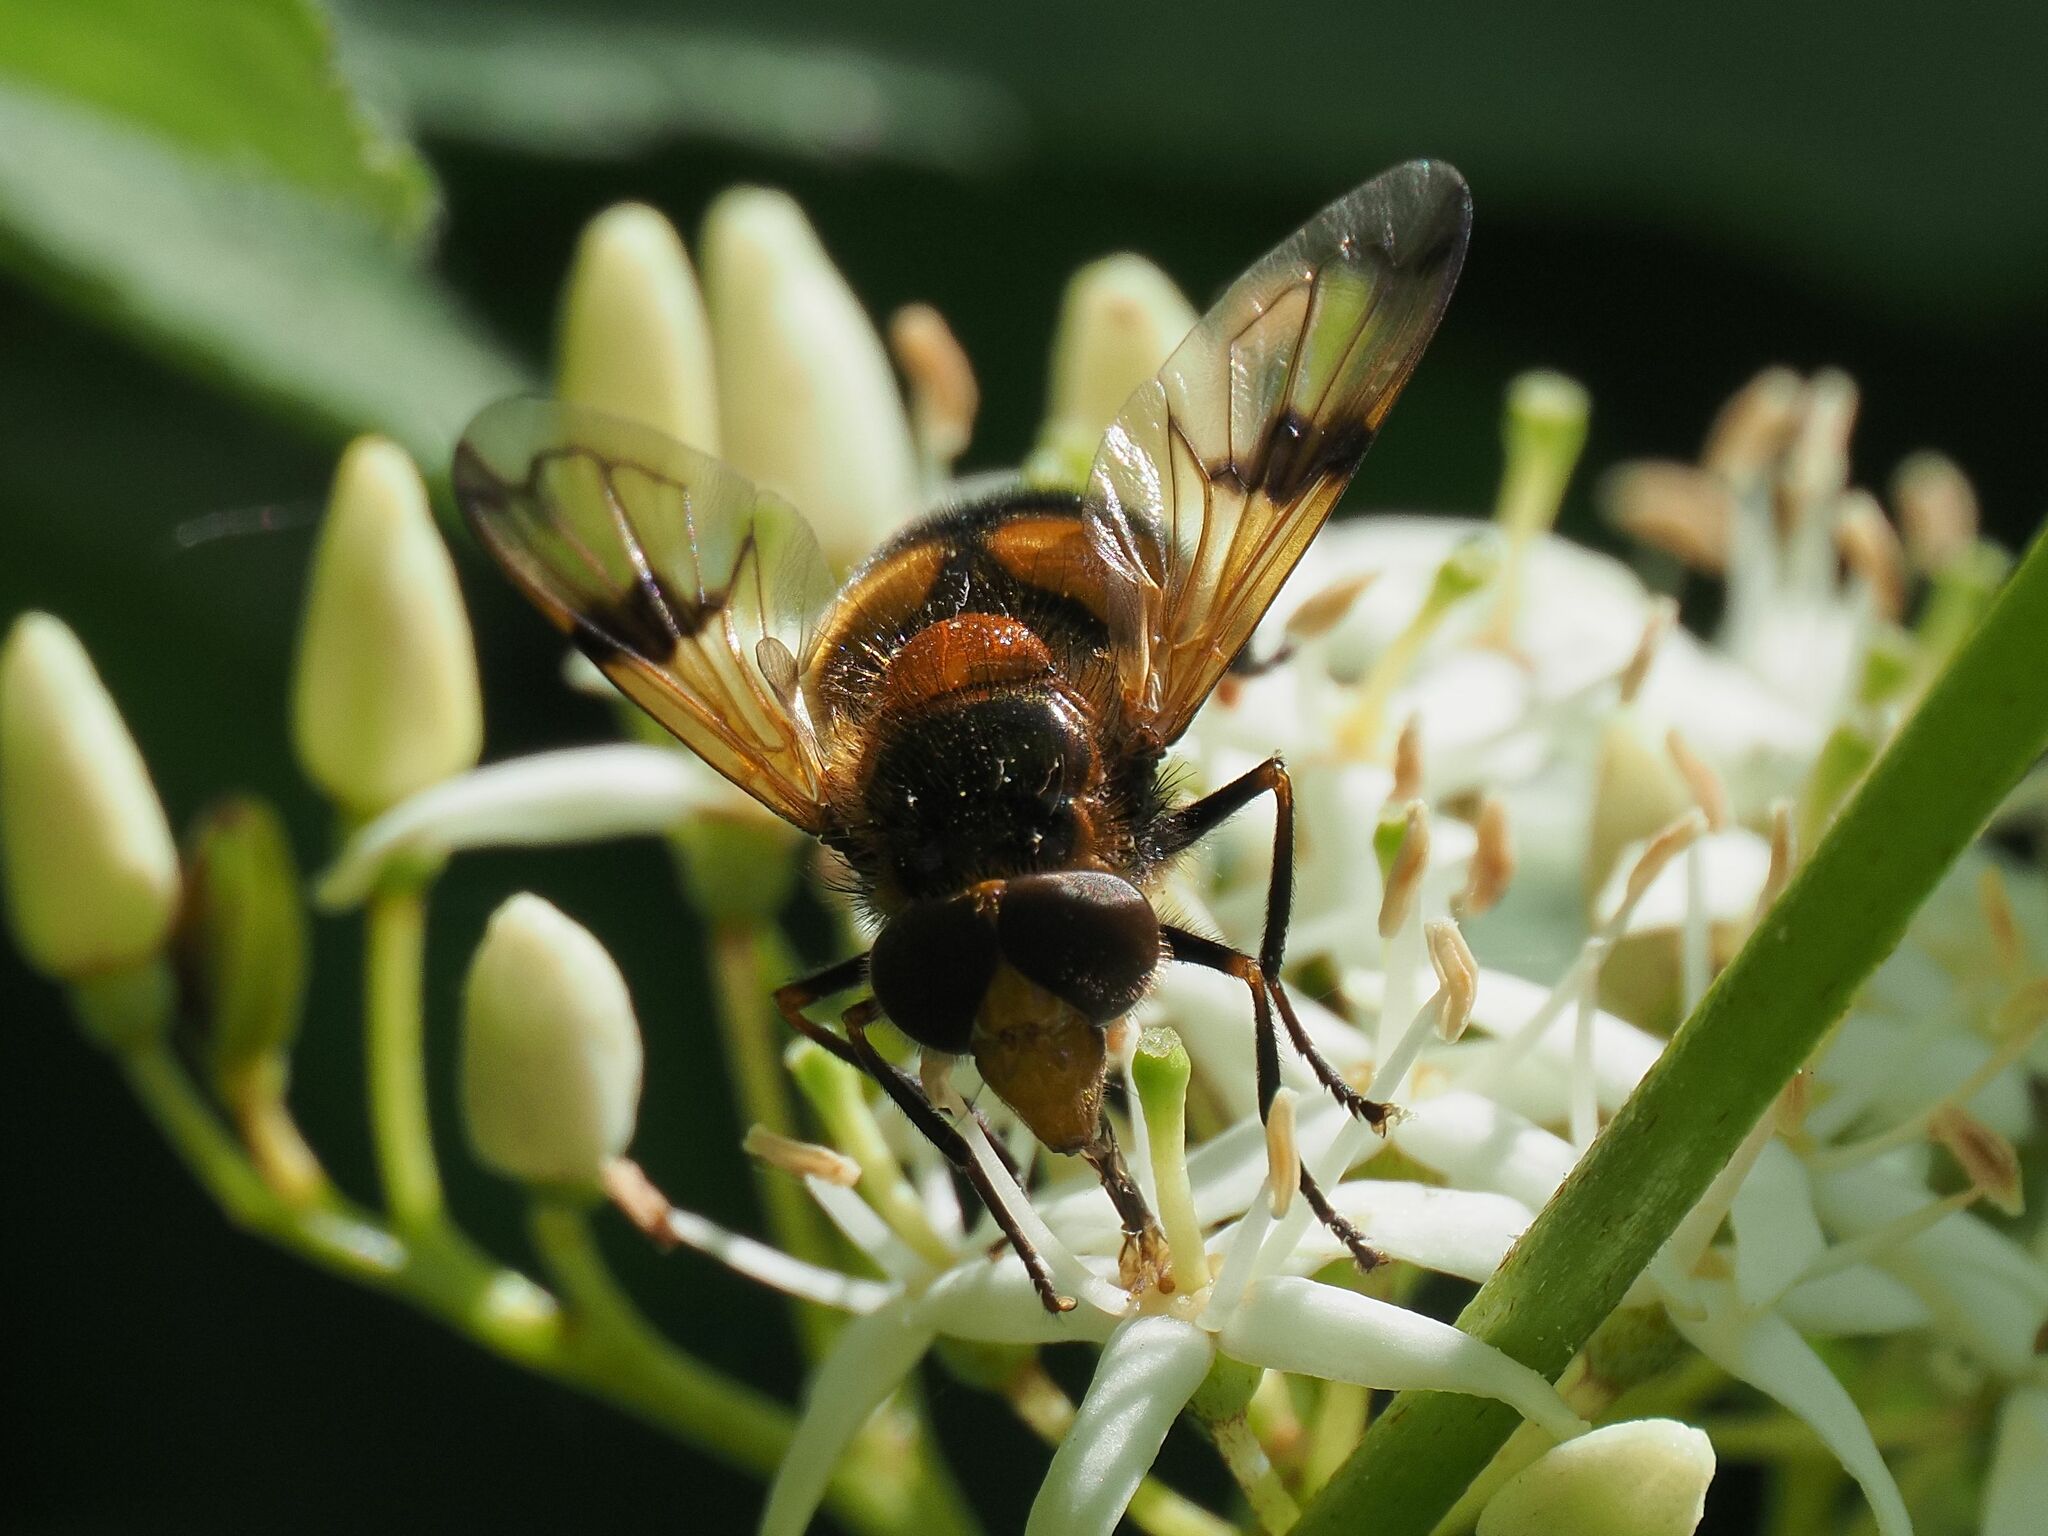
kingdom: Animalia
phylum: Arthropoda
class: Insecta
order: Diptera
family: Syrphidae
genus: Volucella
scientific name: Volucella inflata
